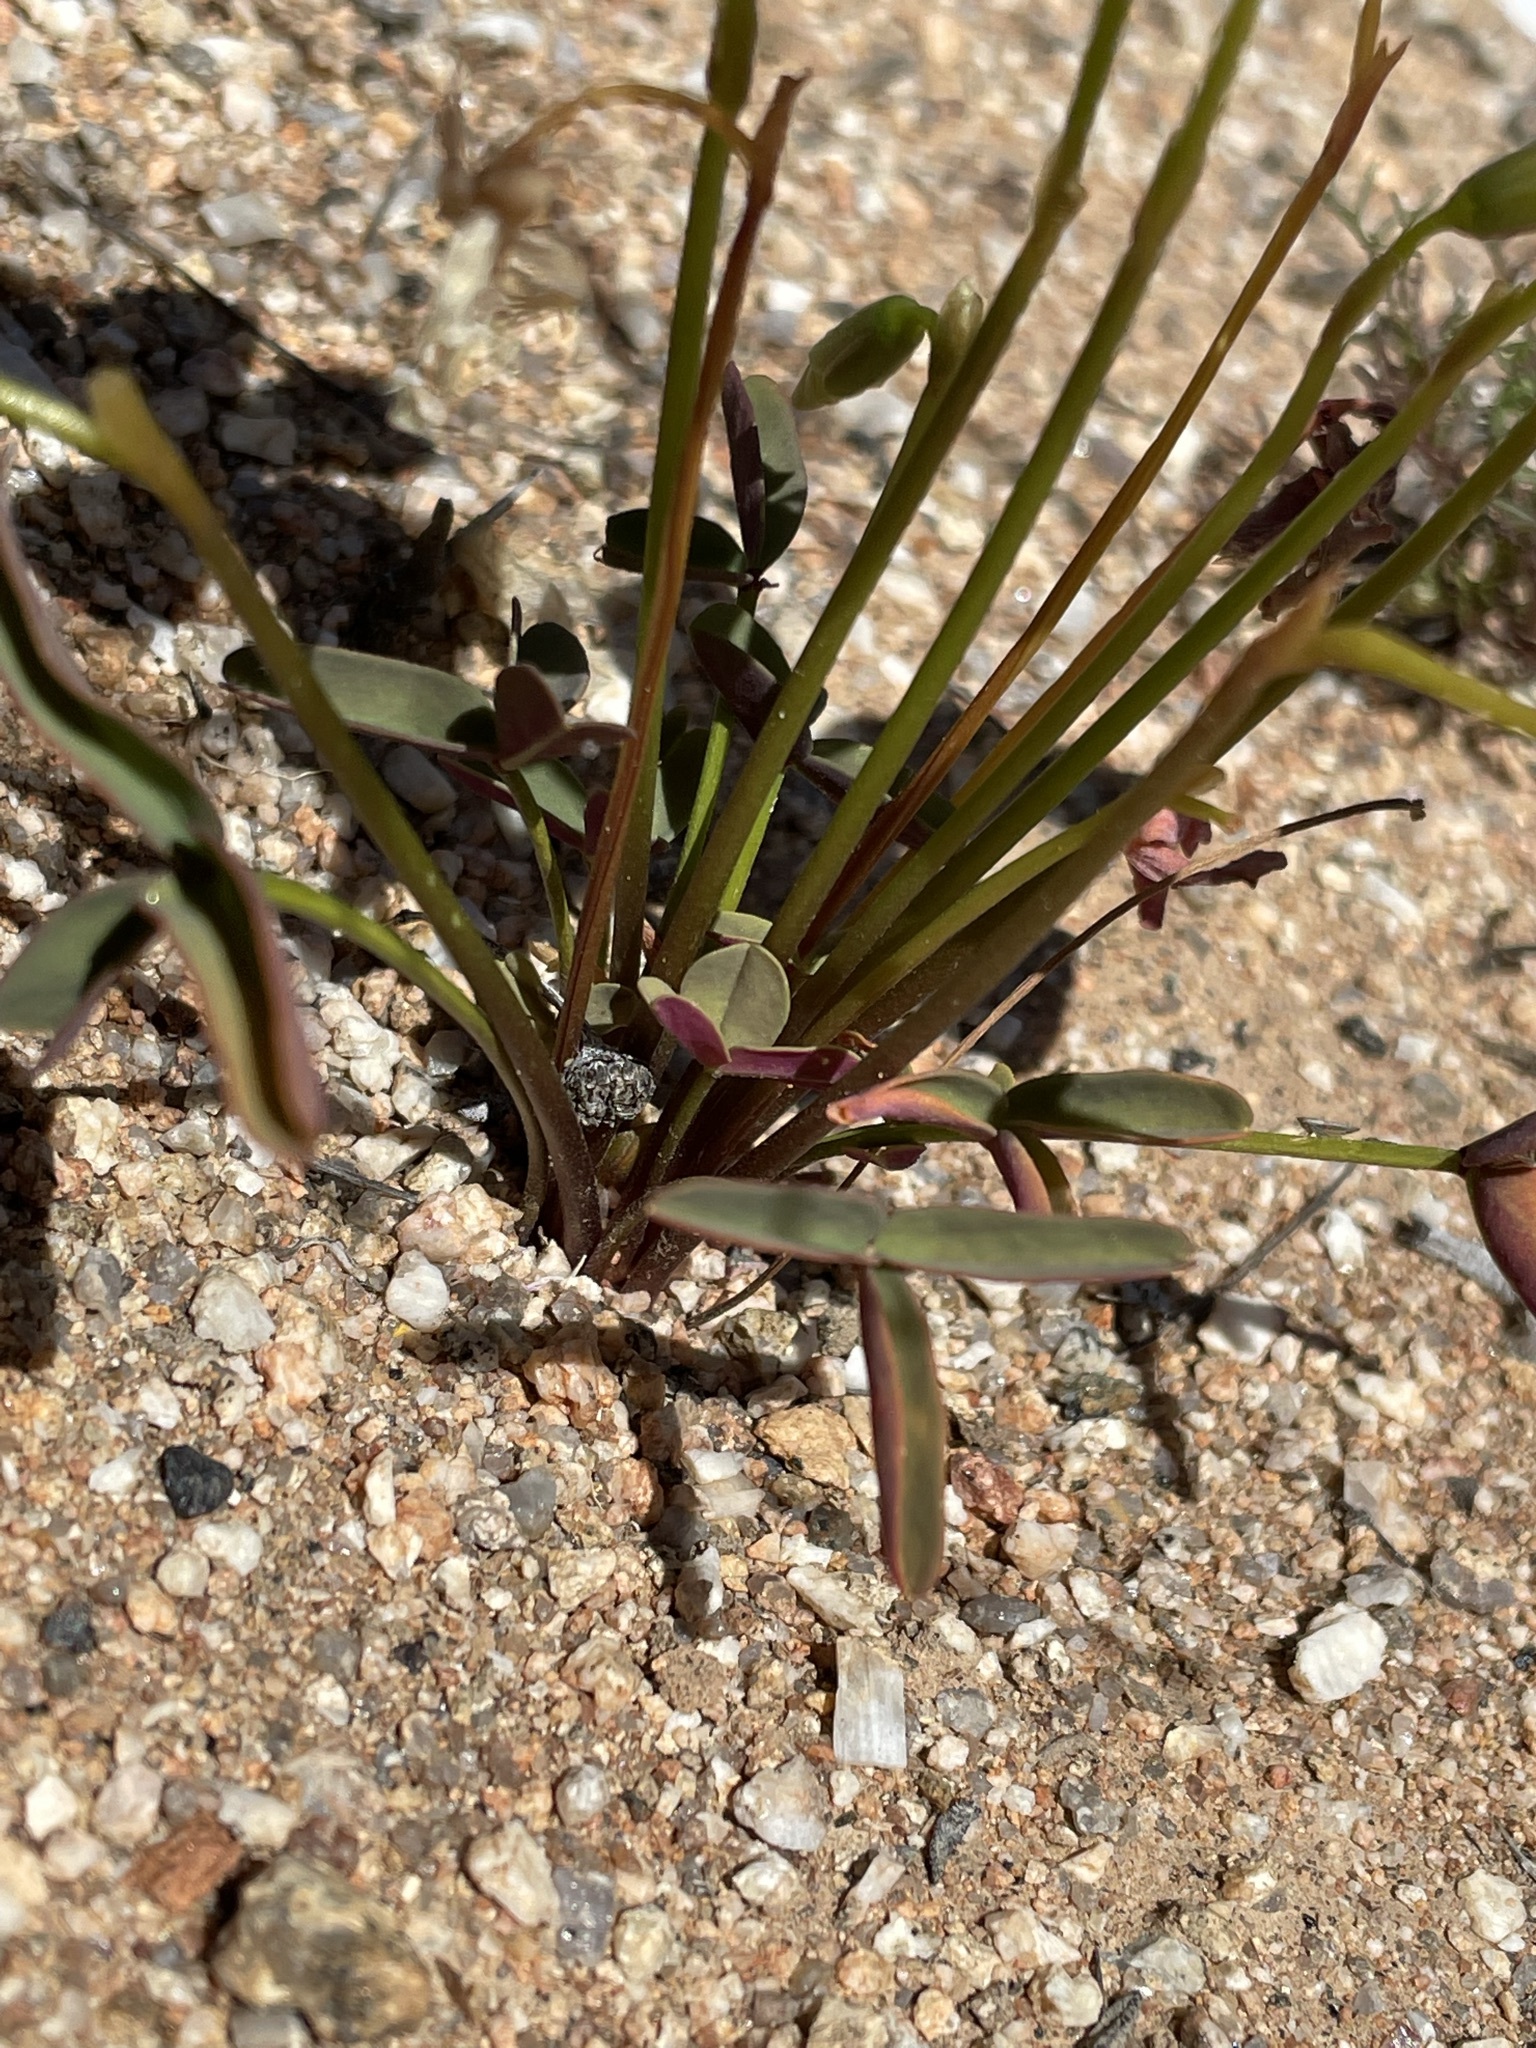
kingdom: Plantae
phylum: Tracheophyta
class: Magnoliopsida
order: Oxalidales
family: Oxalidaceae
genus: Oxalis
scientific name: Oxalis obtusa
